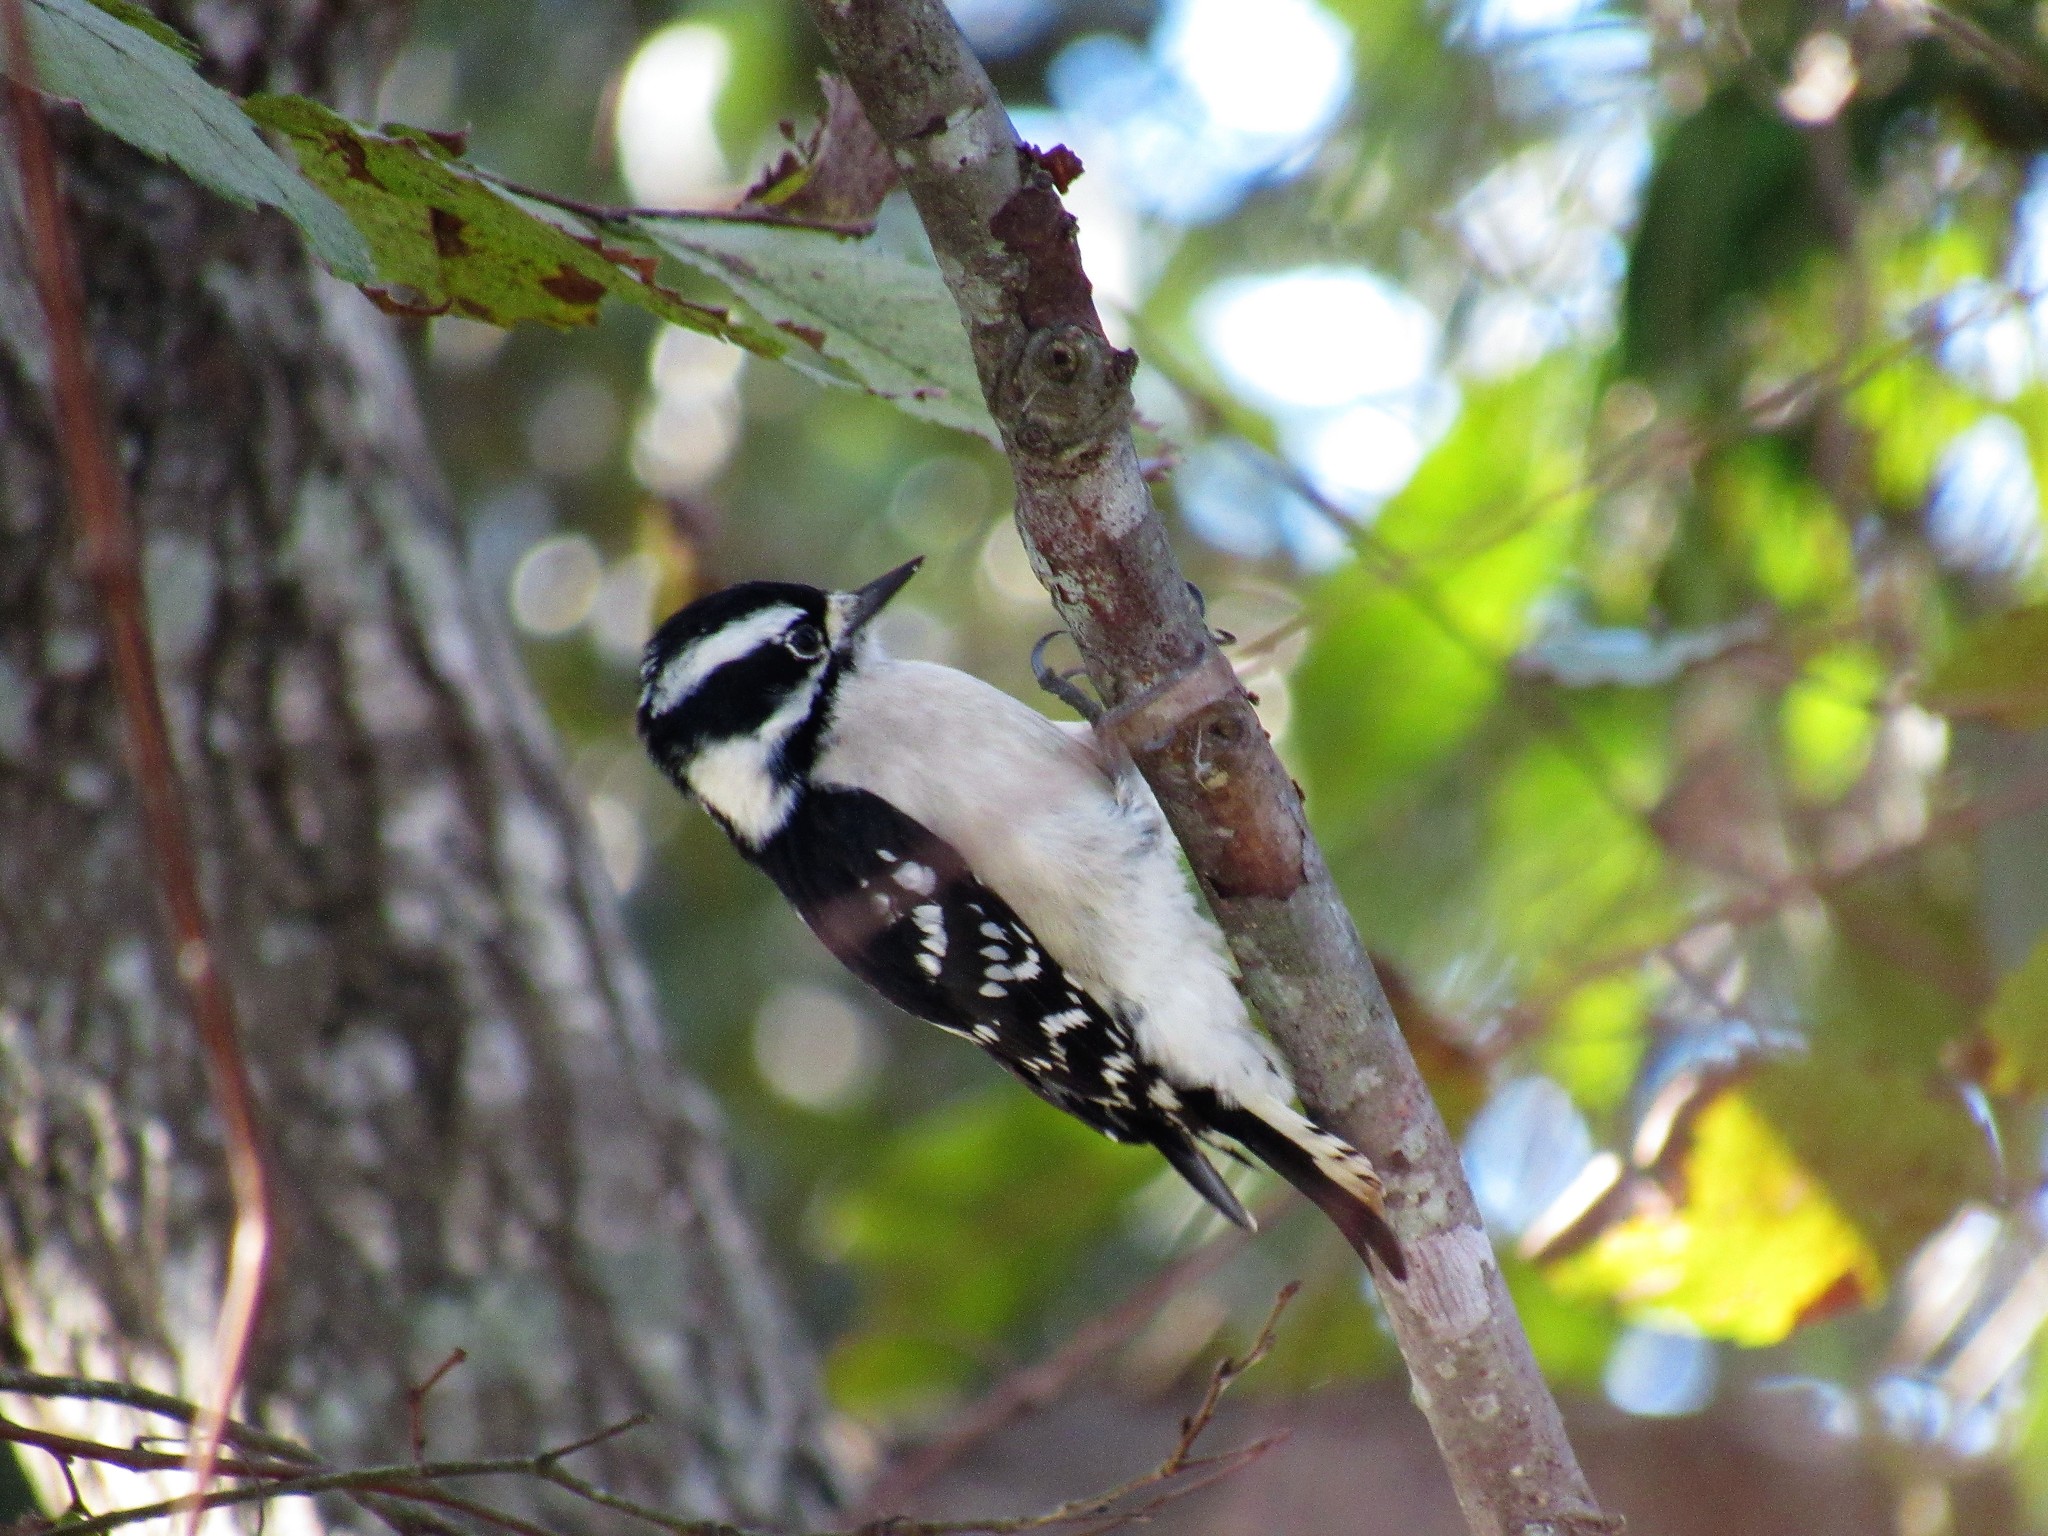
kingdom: Animalia
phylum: Chordata
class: Aves
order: Piciformes
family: Picidae
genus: Dryobates
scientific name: Dryobates pubescens
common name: Downy woodpecker
